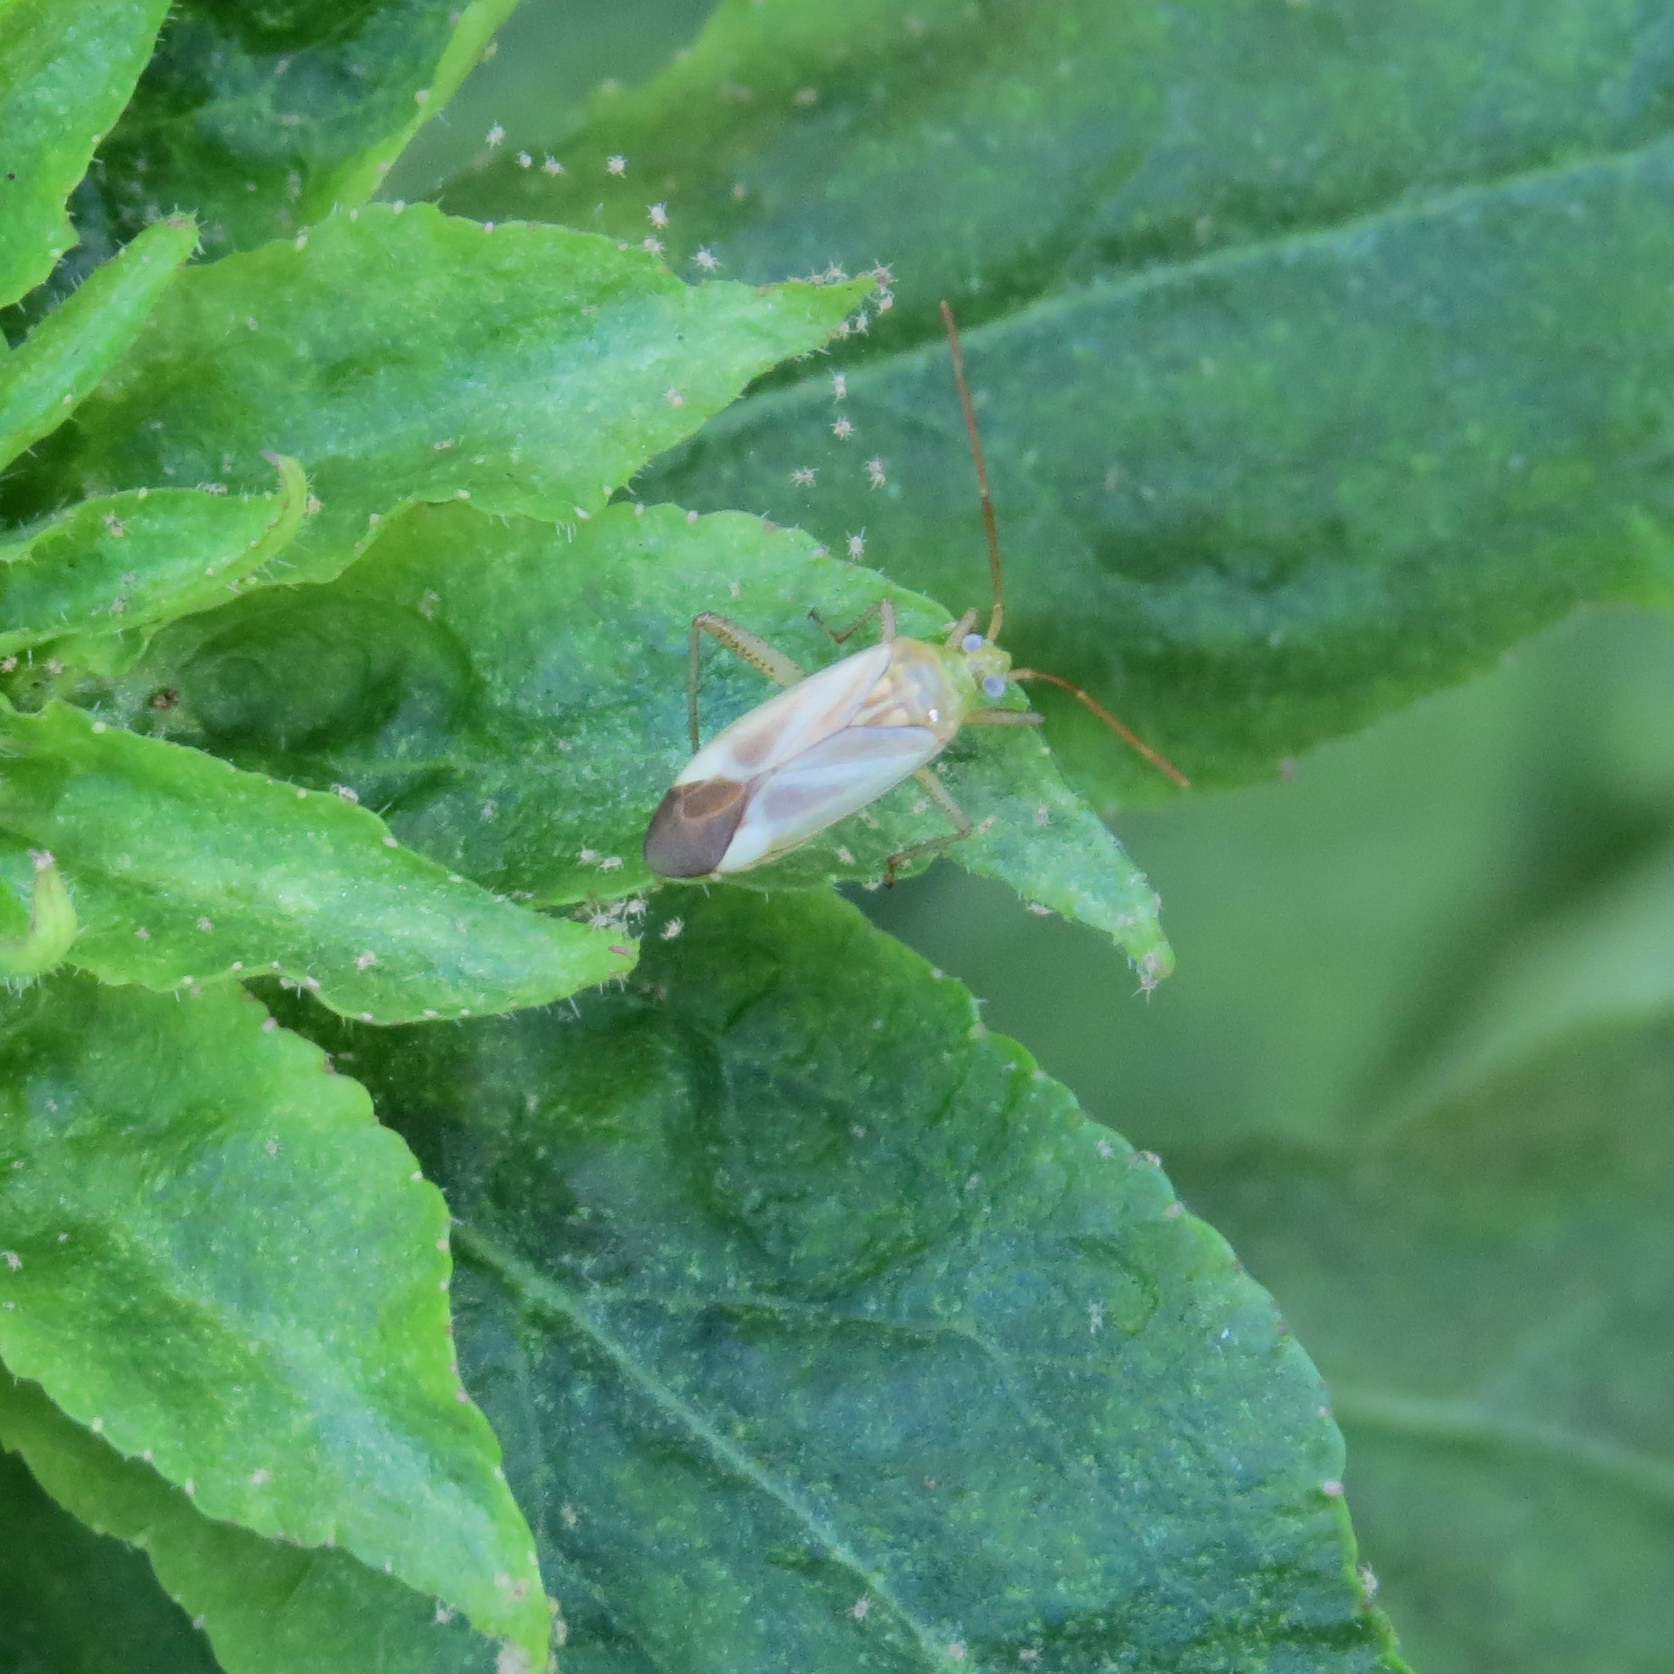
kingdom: Animalia
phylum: Arthropoda
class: Insecta
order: Hemiptera
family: Miridae
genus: Adelphocoris
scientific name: Adelphocoris lineolatus
